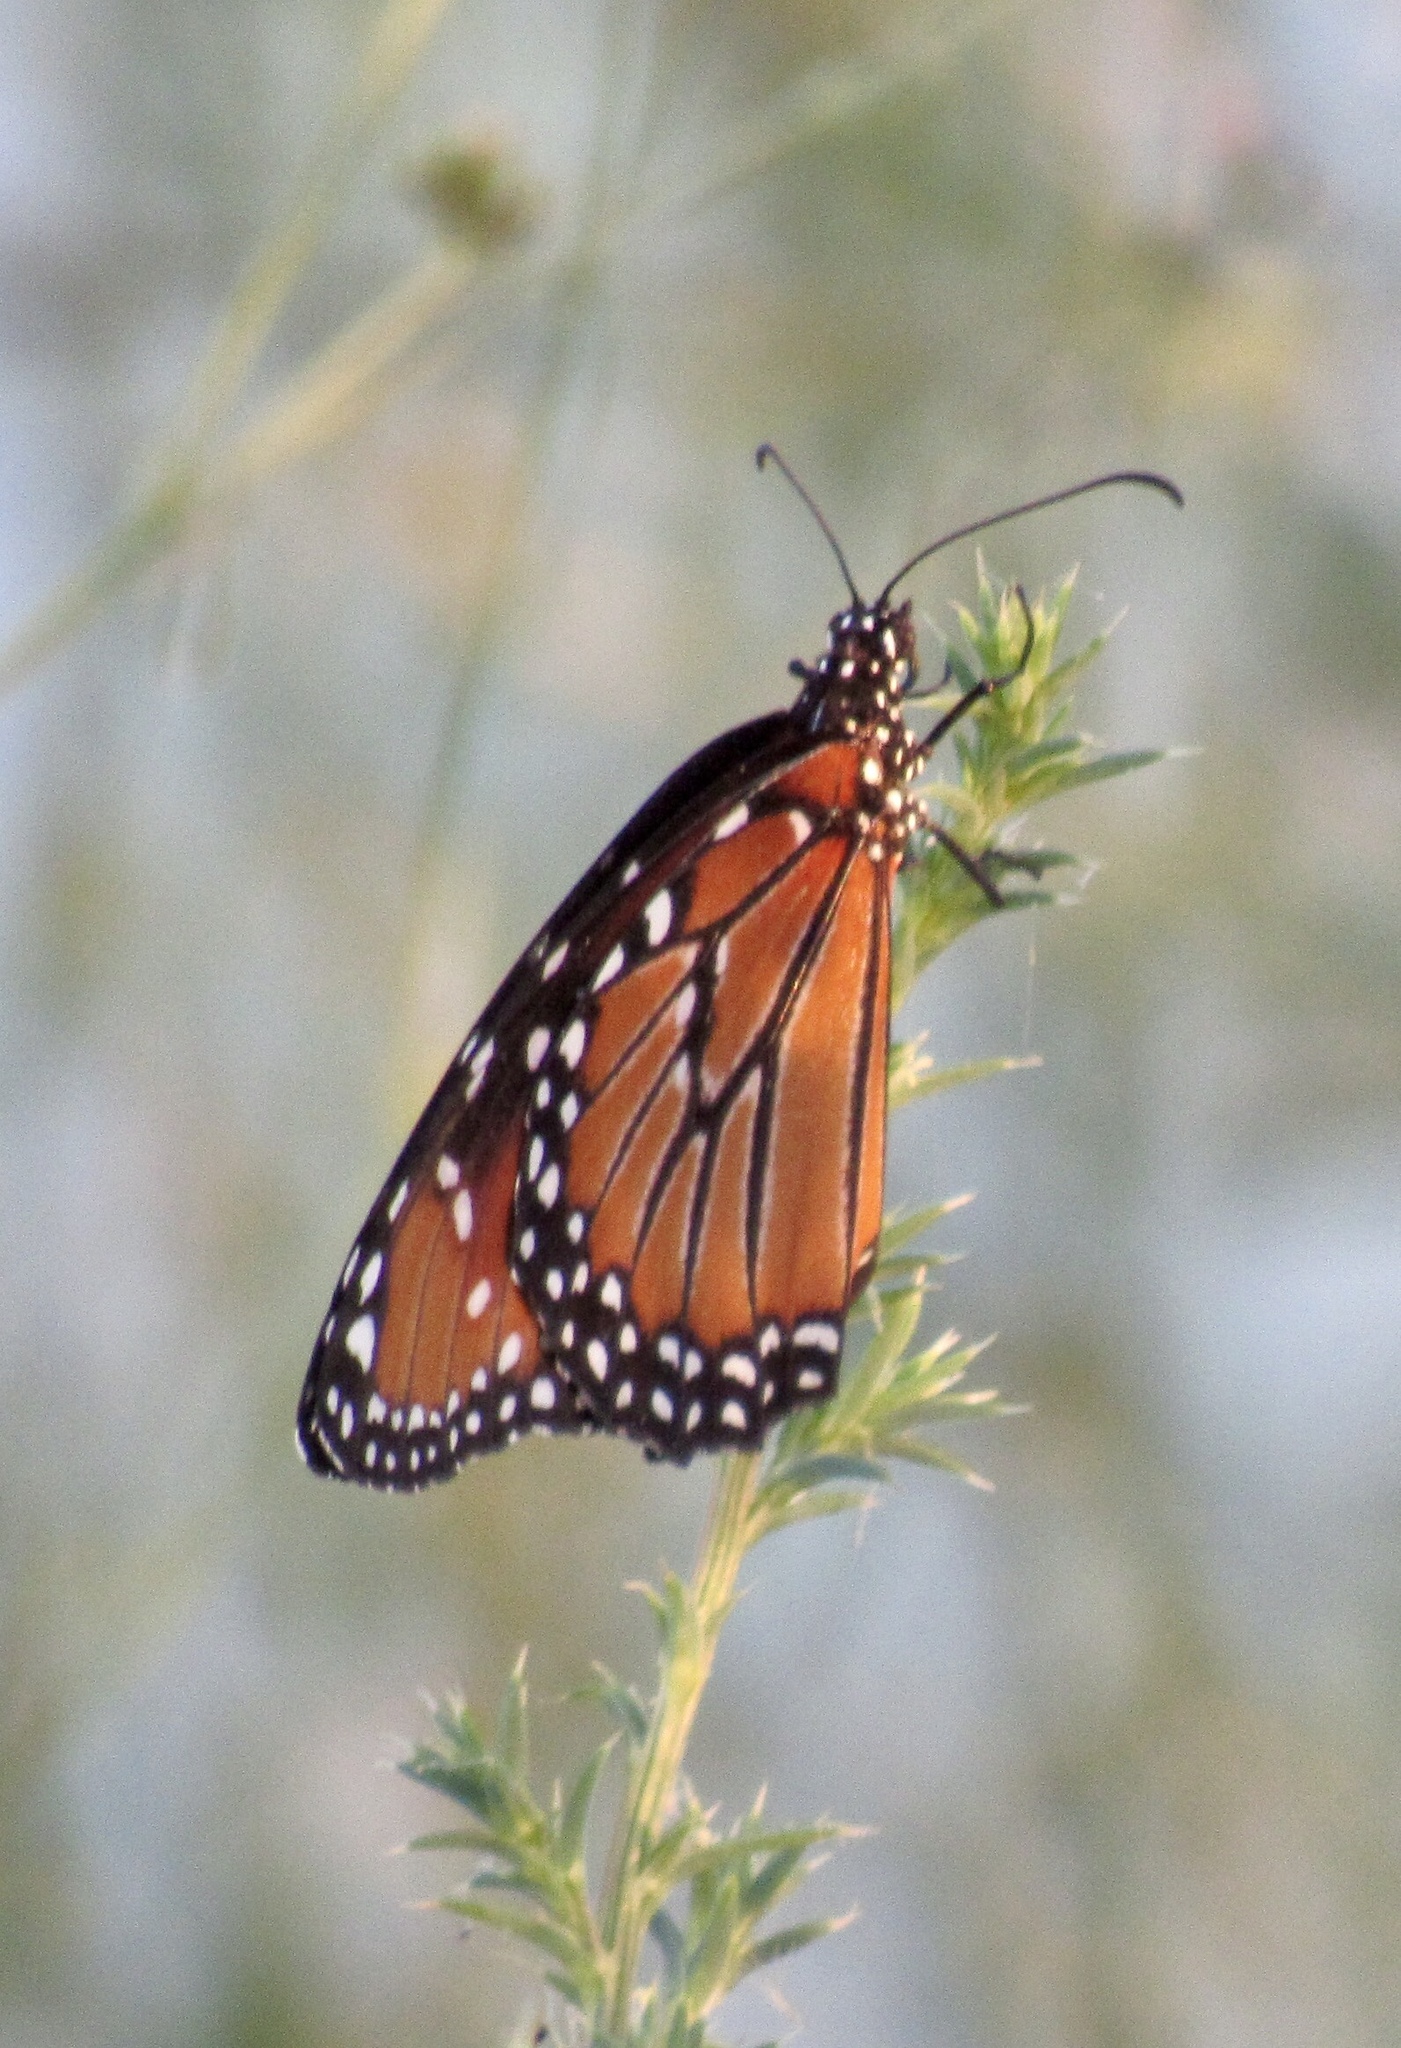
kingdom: Animalia
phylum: Arthropoda
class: Insecta
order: Lepidoptera
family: Nymphalidae
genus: Danaus
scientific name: Danaus gilippus
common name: Queen
